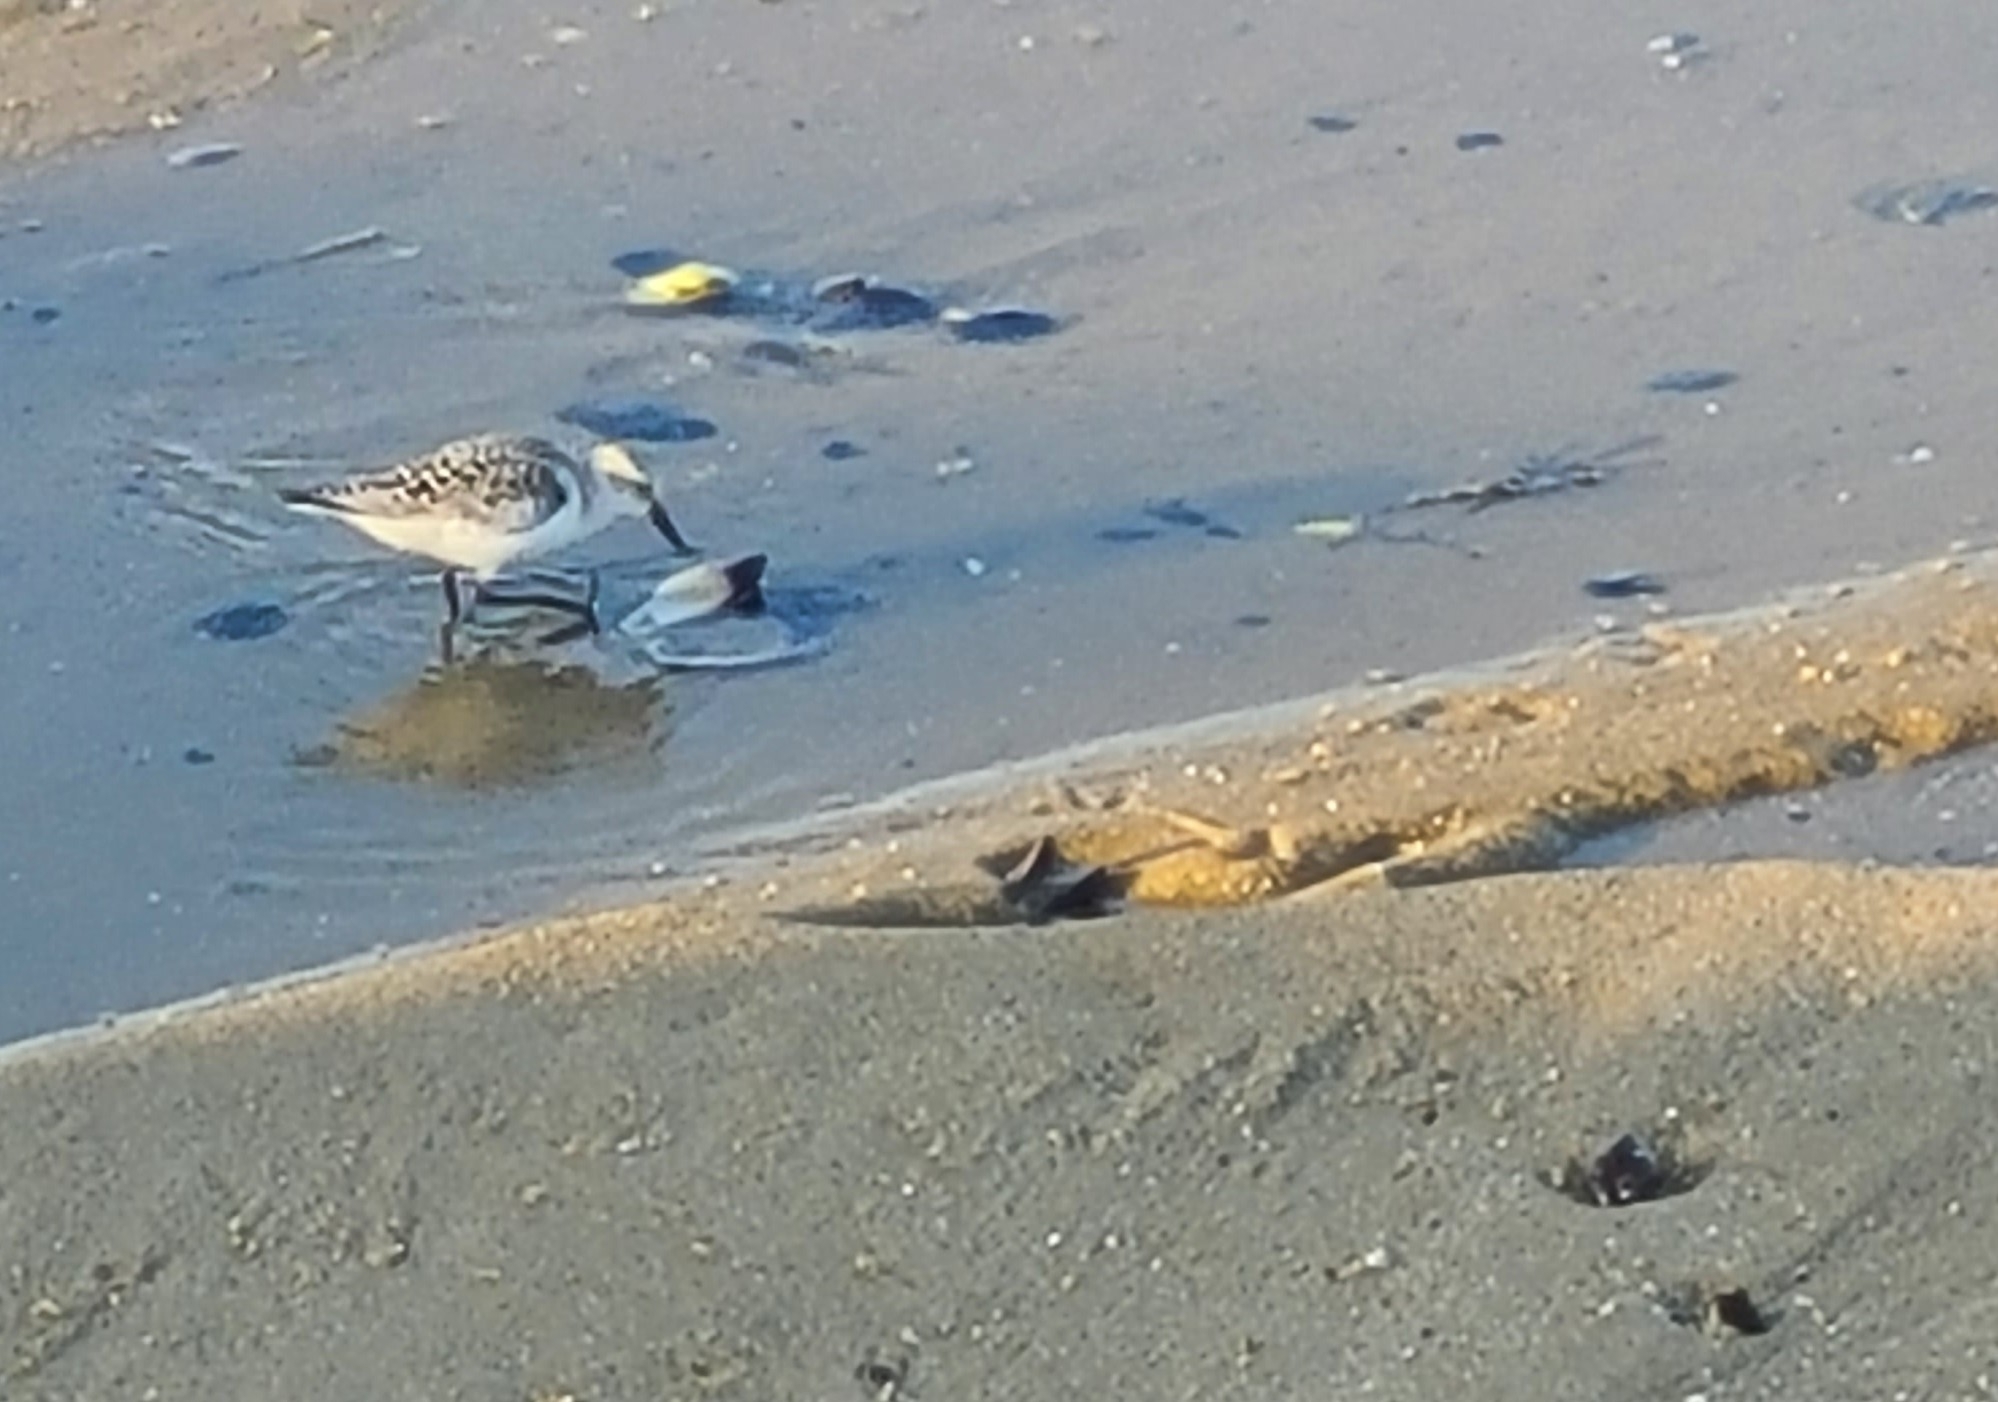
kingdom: Animalia
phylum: Chordata
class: Aves
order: Charadriiformes
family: Scolopacidae
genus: Calidris
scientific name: Calidris alba
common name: Sanderling
